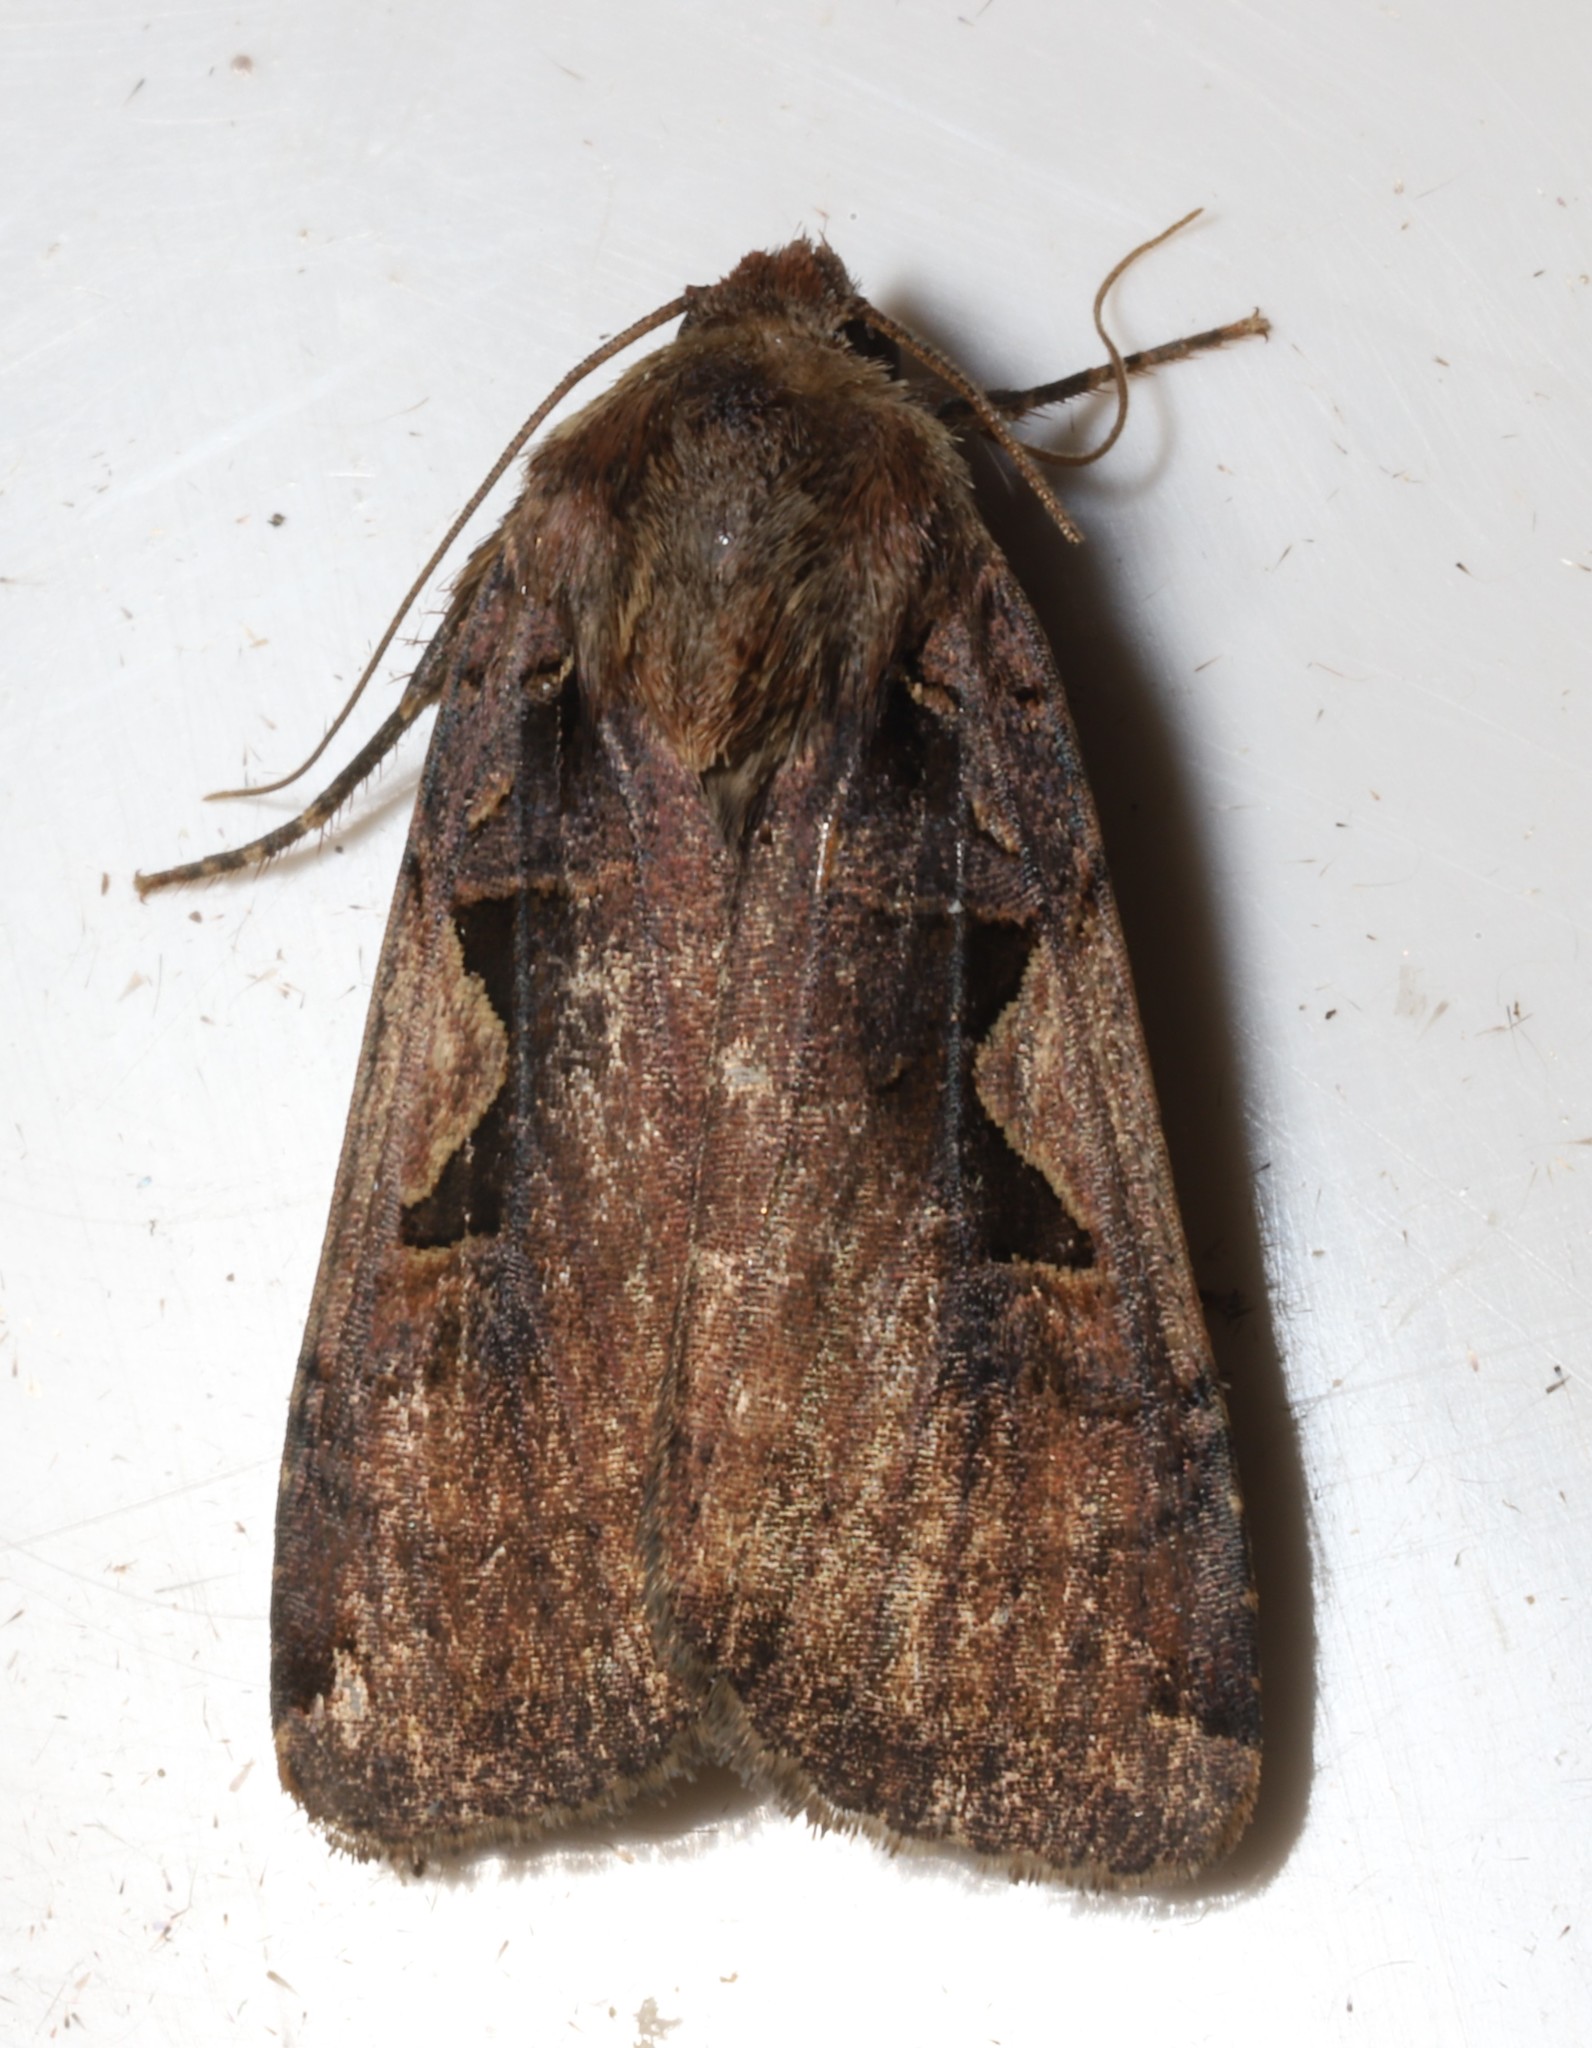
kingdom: Animalia
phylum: Arthropoda
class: Insecta
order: Lepidoptera
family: Noctuidae
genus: Xestia
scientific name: Xestia
